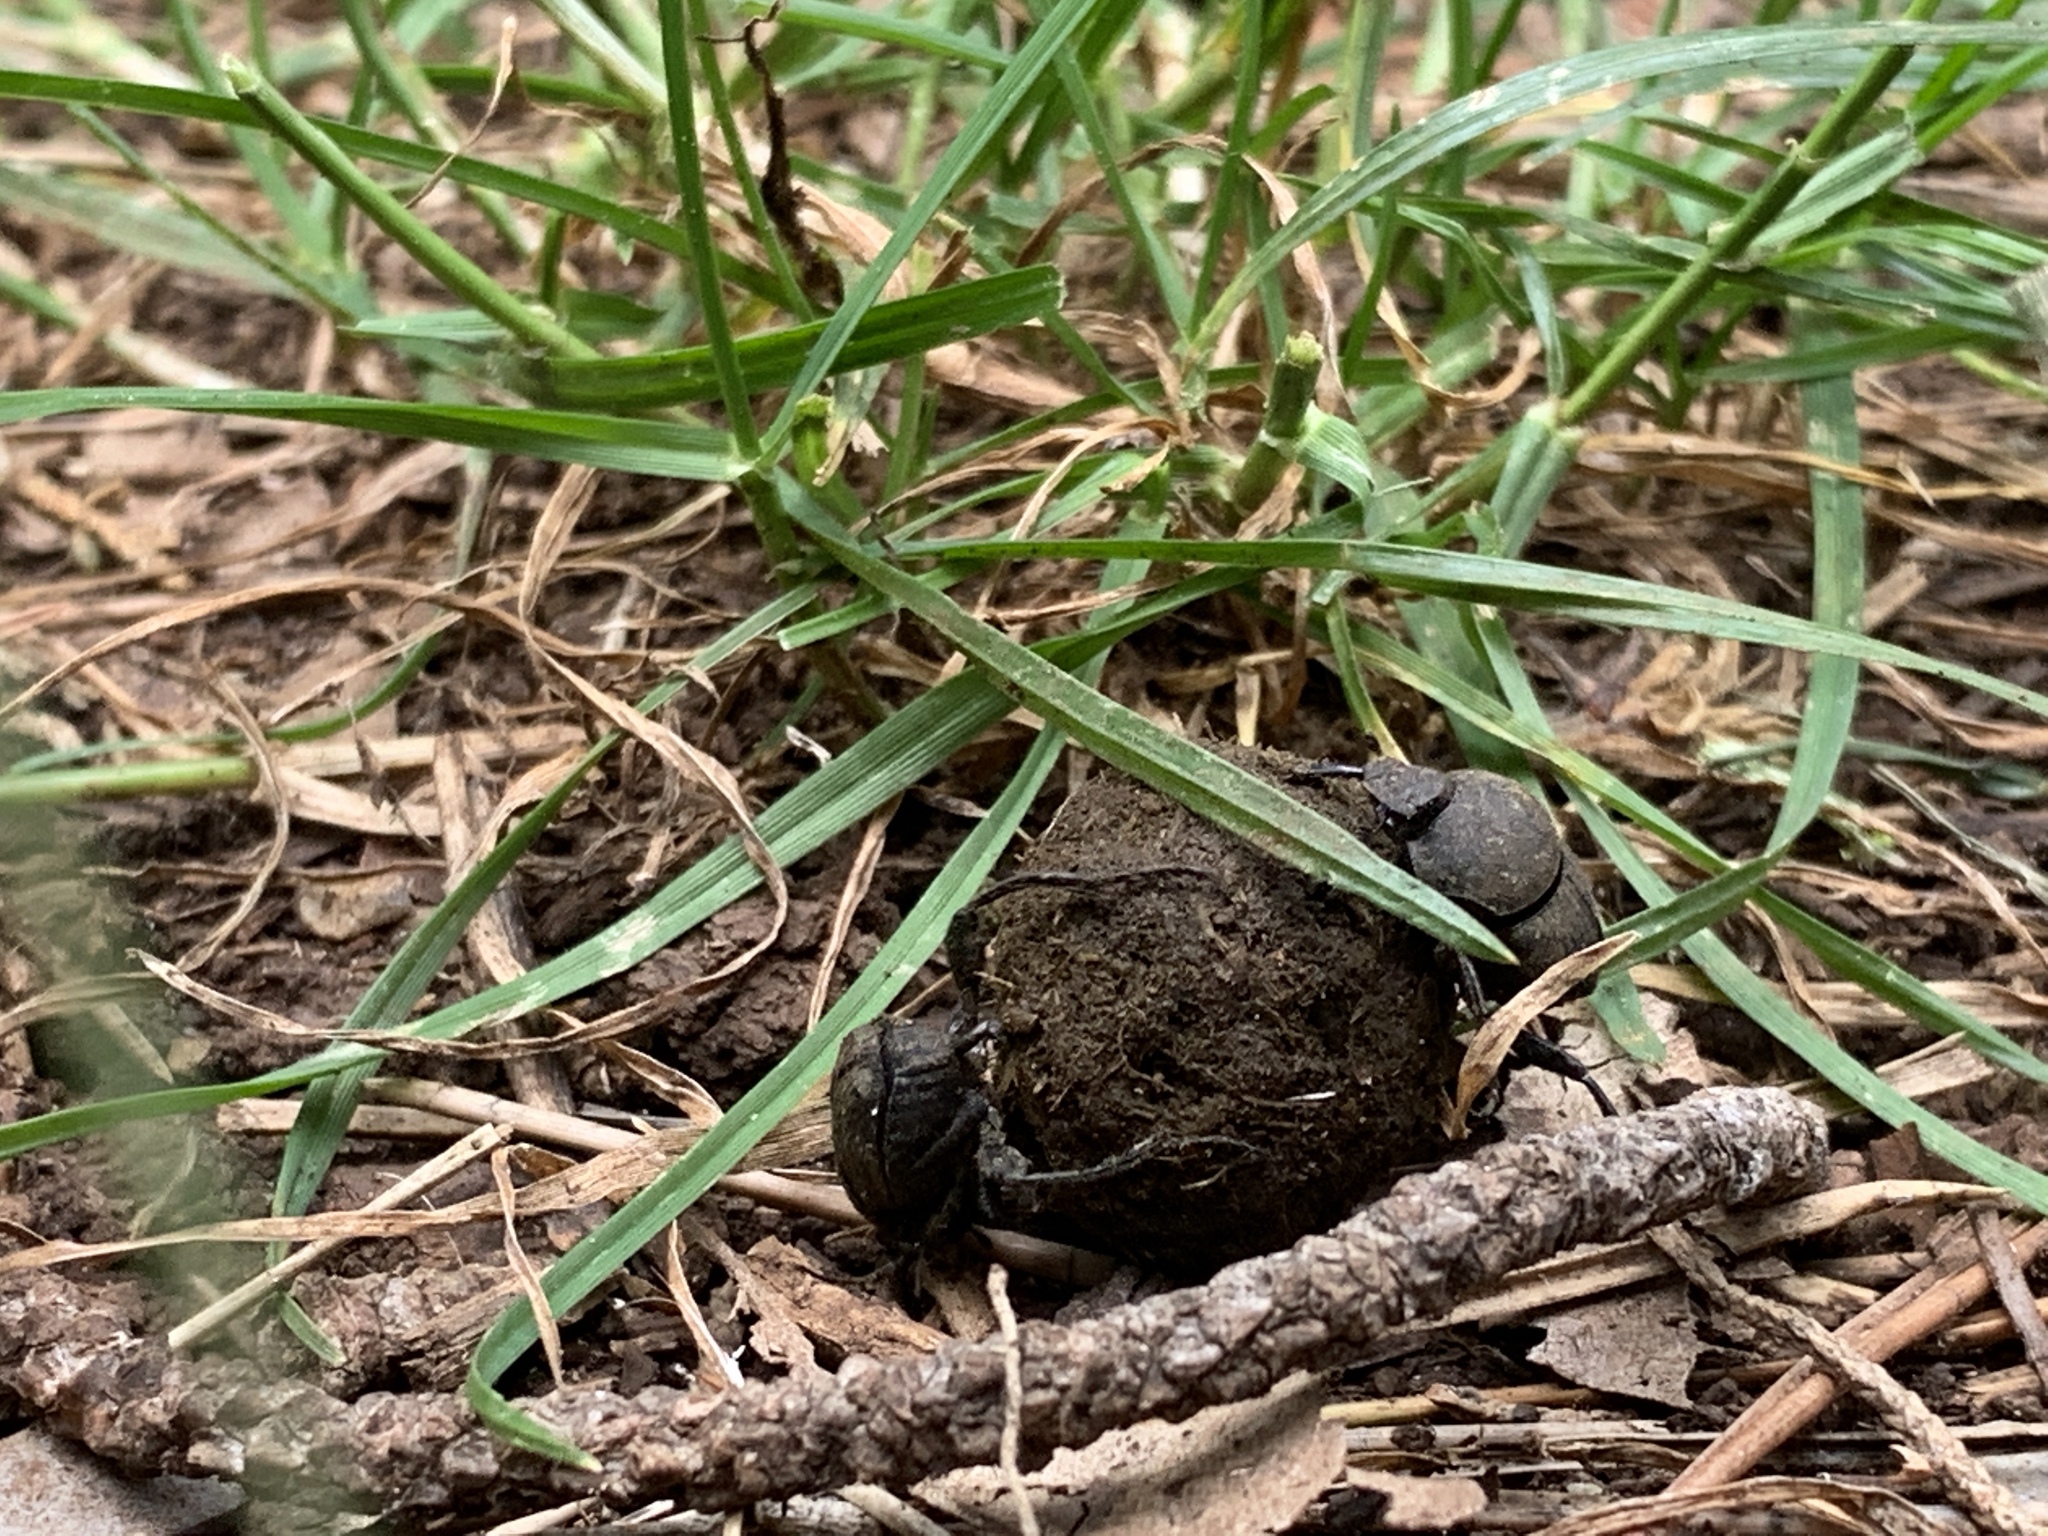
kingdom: Animalia
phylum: Arthropoda
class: Insecta
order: Coleoptera
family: Scarabaeidae
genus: Sisyphus
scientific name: Sisyphus schaefferi
